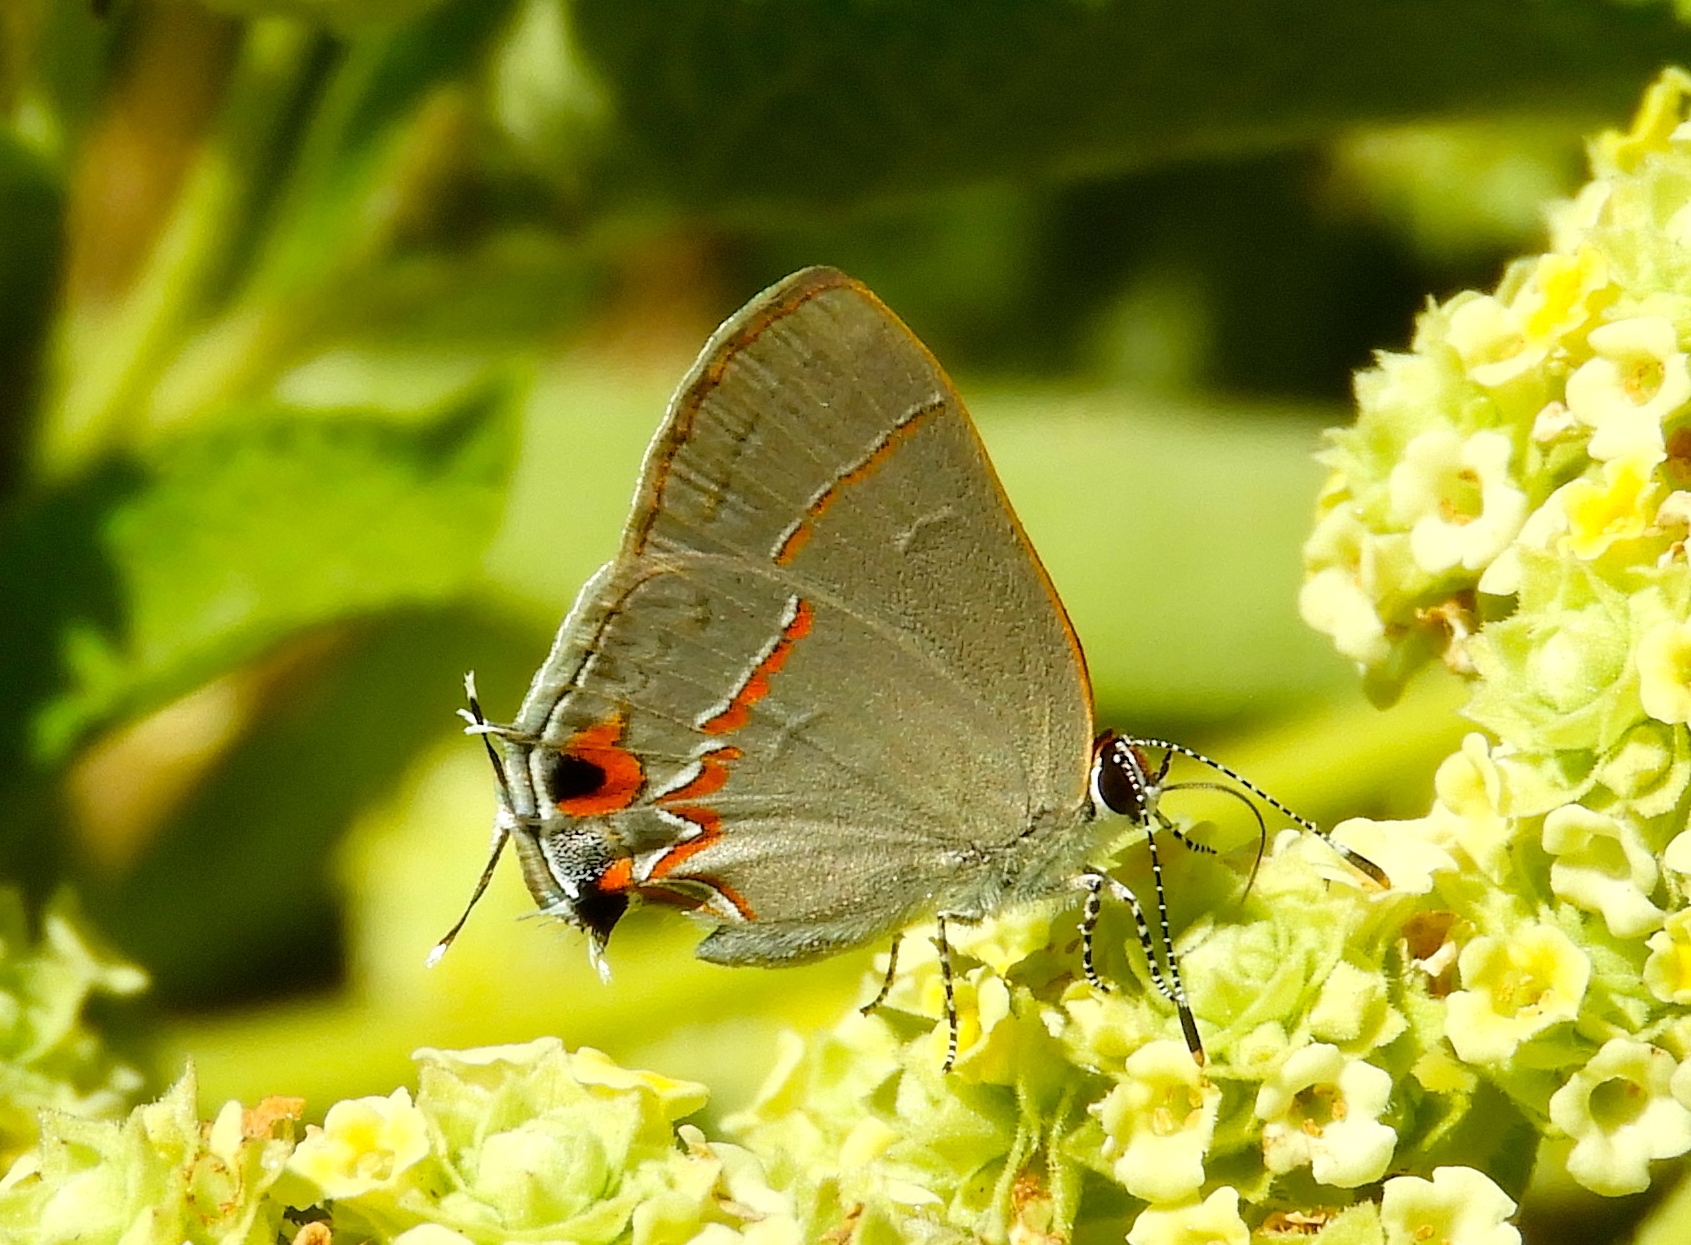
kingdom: Animalia
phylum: Arthropoda
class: Insecta
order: Lepidoptera
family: Lycaenidae
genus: Electrostrymon
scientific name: Electrostrymon endymion
